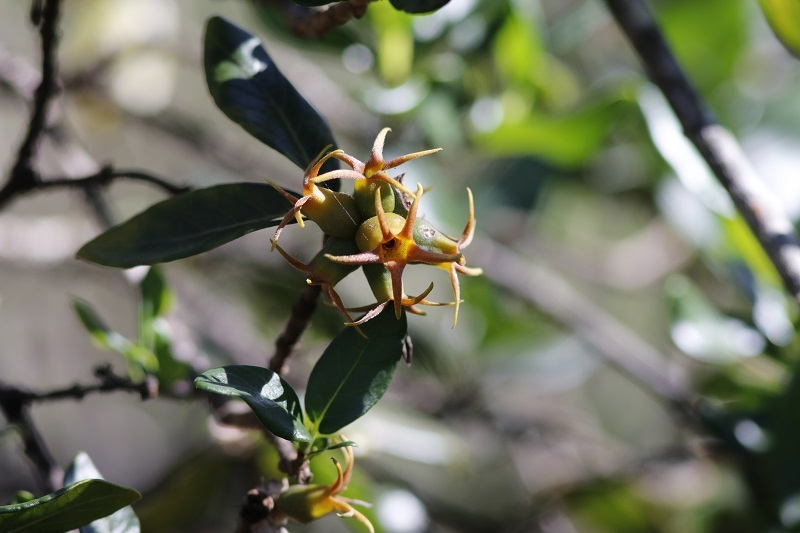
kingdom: Plantae
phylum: Tracheophyta
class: Magnoliopsida
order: Gentianales
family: Rubiaceae
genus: Burchellia
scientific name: Burchellia bubalina
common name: Wild pomegranate
